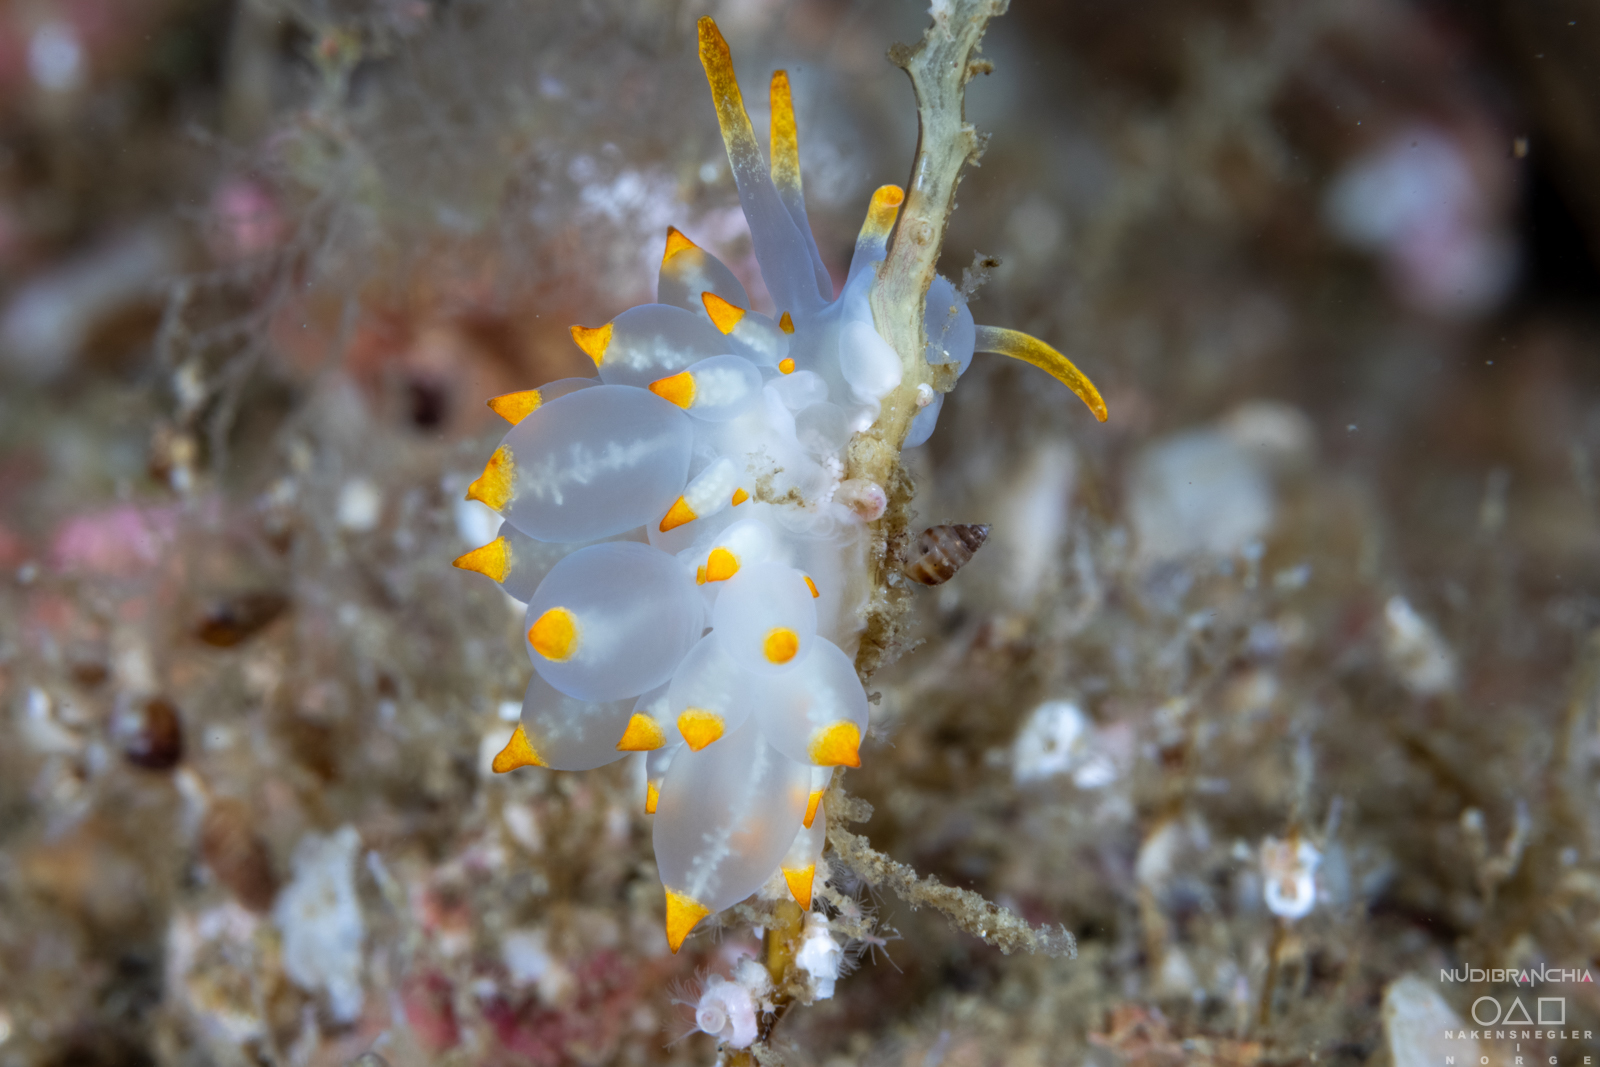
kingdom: Animalia
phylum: Mollusca
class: Gastropoda
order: Nudibranchia
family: Eubranchidae
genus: Amphorina
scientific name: Amphorina farrani
